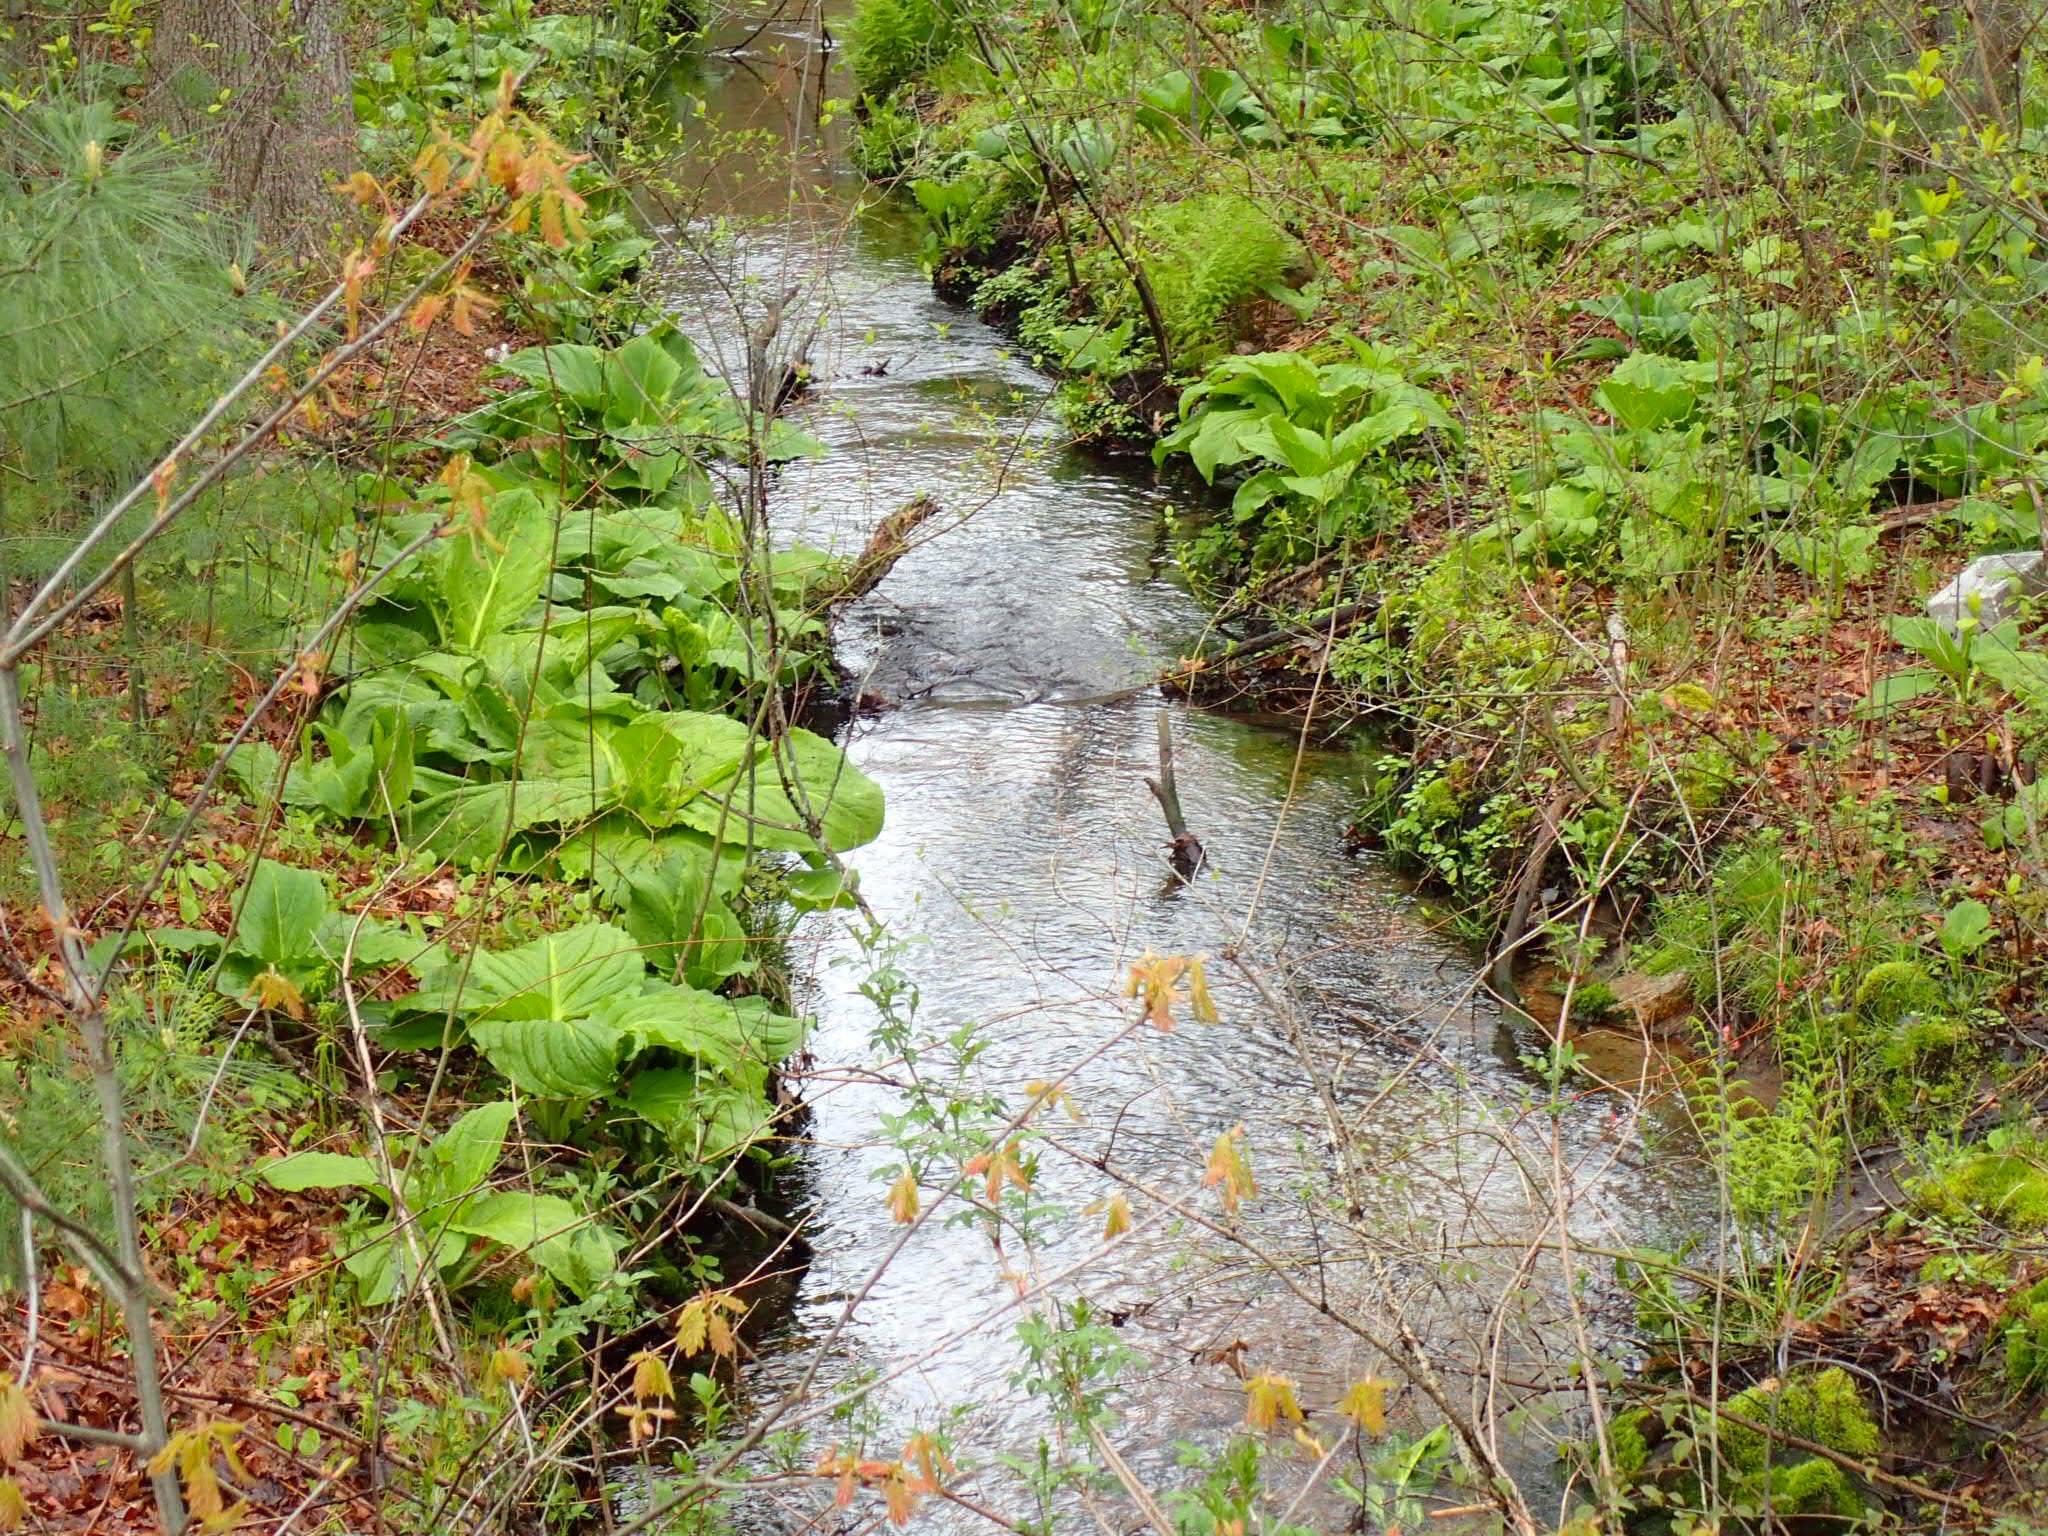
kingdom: Plantae
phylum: Tracheophyta
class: Liliopsida
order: Alismatales
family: Araceae
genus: Symplocarpus
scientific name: Symplocarpus foetidus
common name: Eastern skunk cabbage
